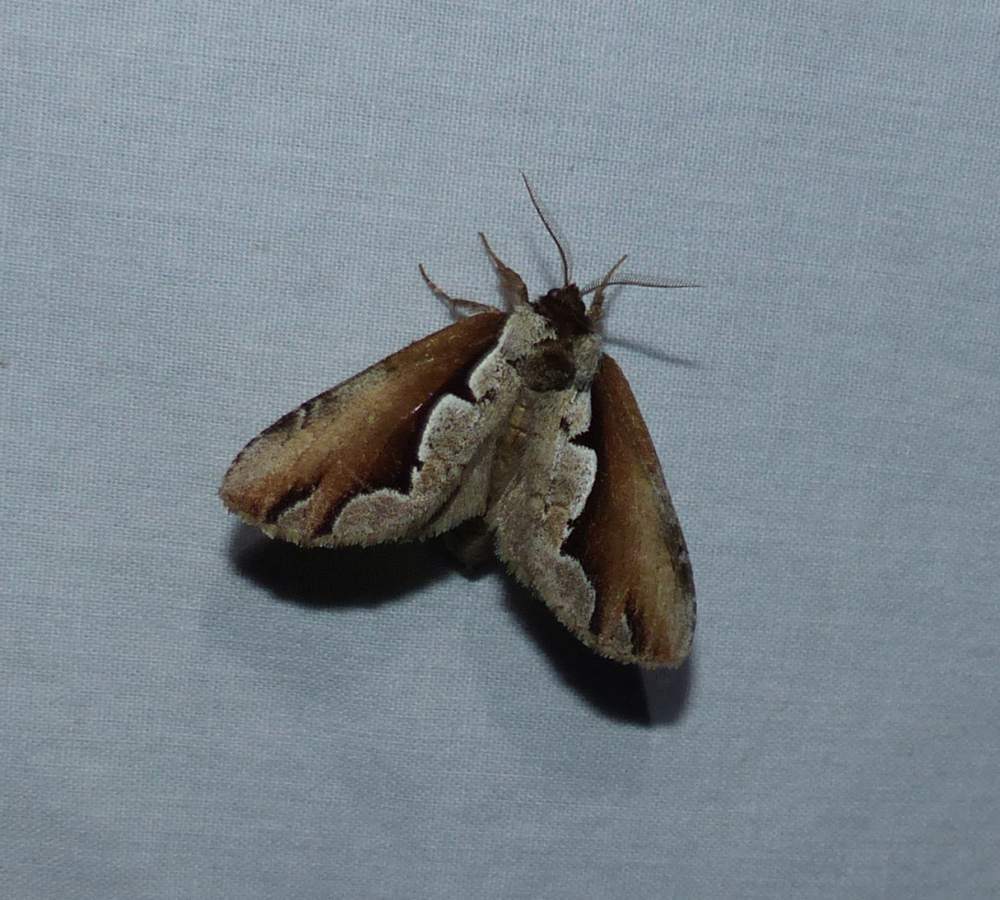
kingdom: Animalia
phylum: Arthropoda
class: Insecta
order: Lepidoptera
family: Notodontidae
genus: Nerice
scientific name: Nerice bidentata
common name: Double-toothed prominent
